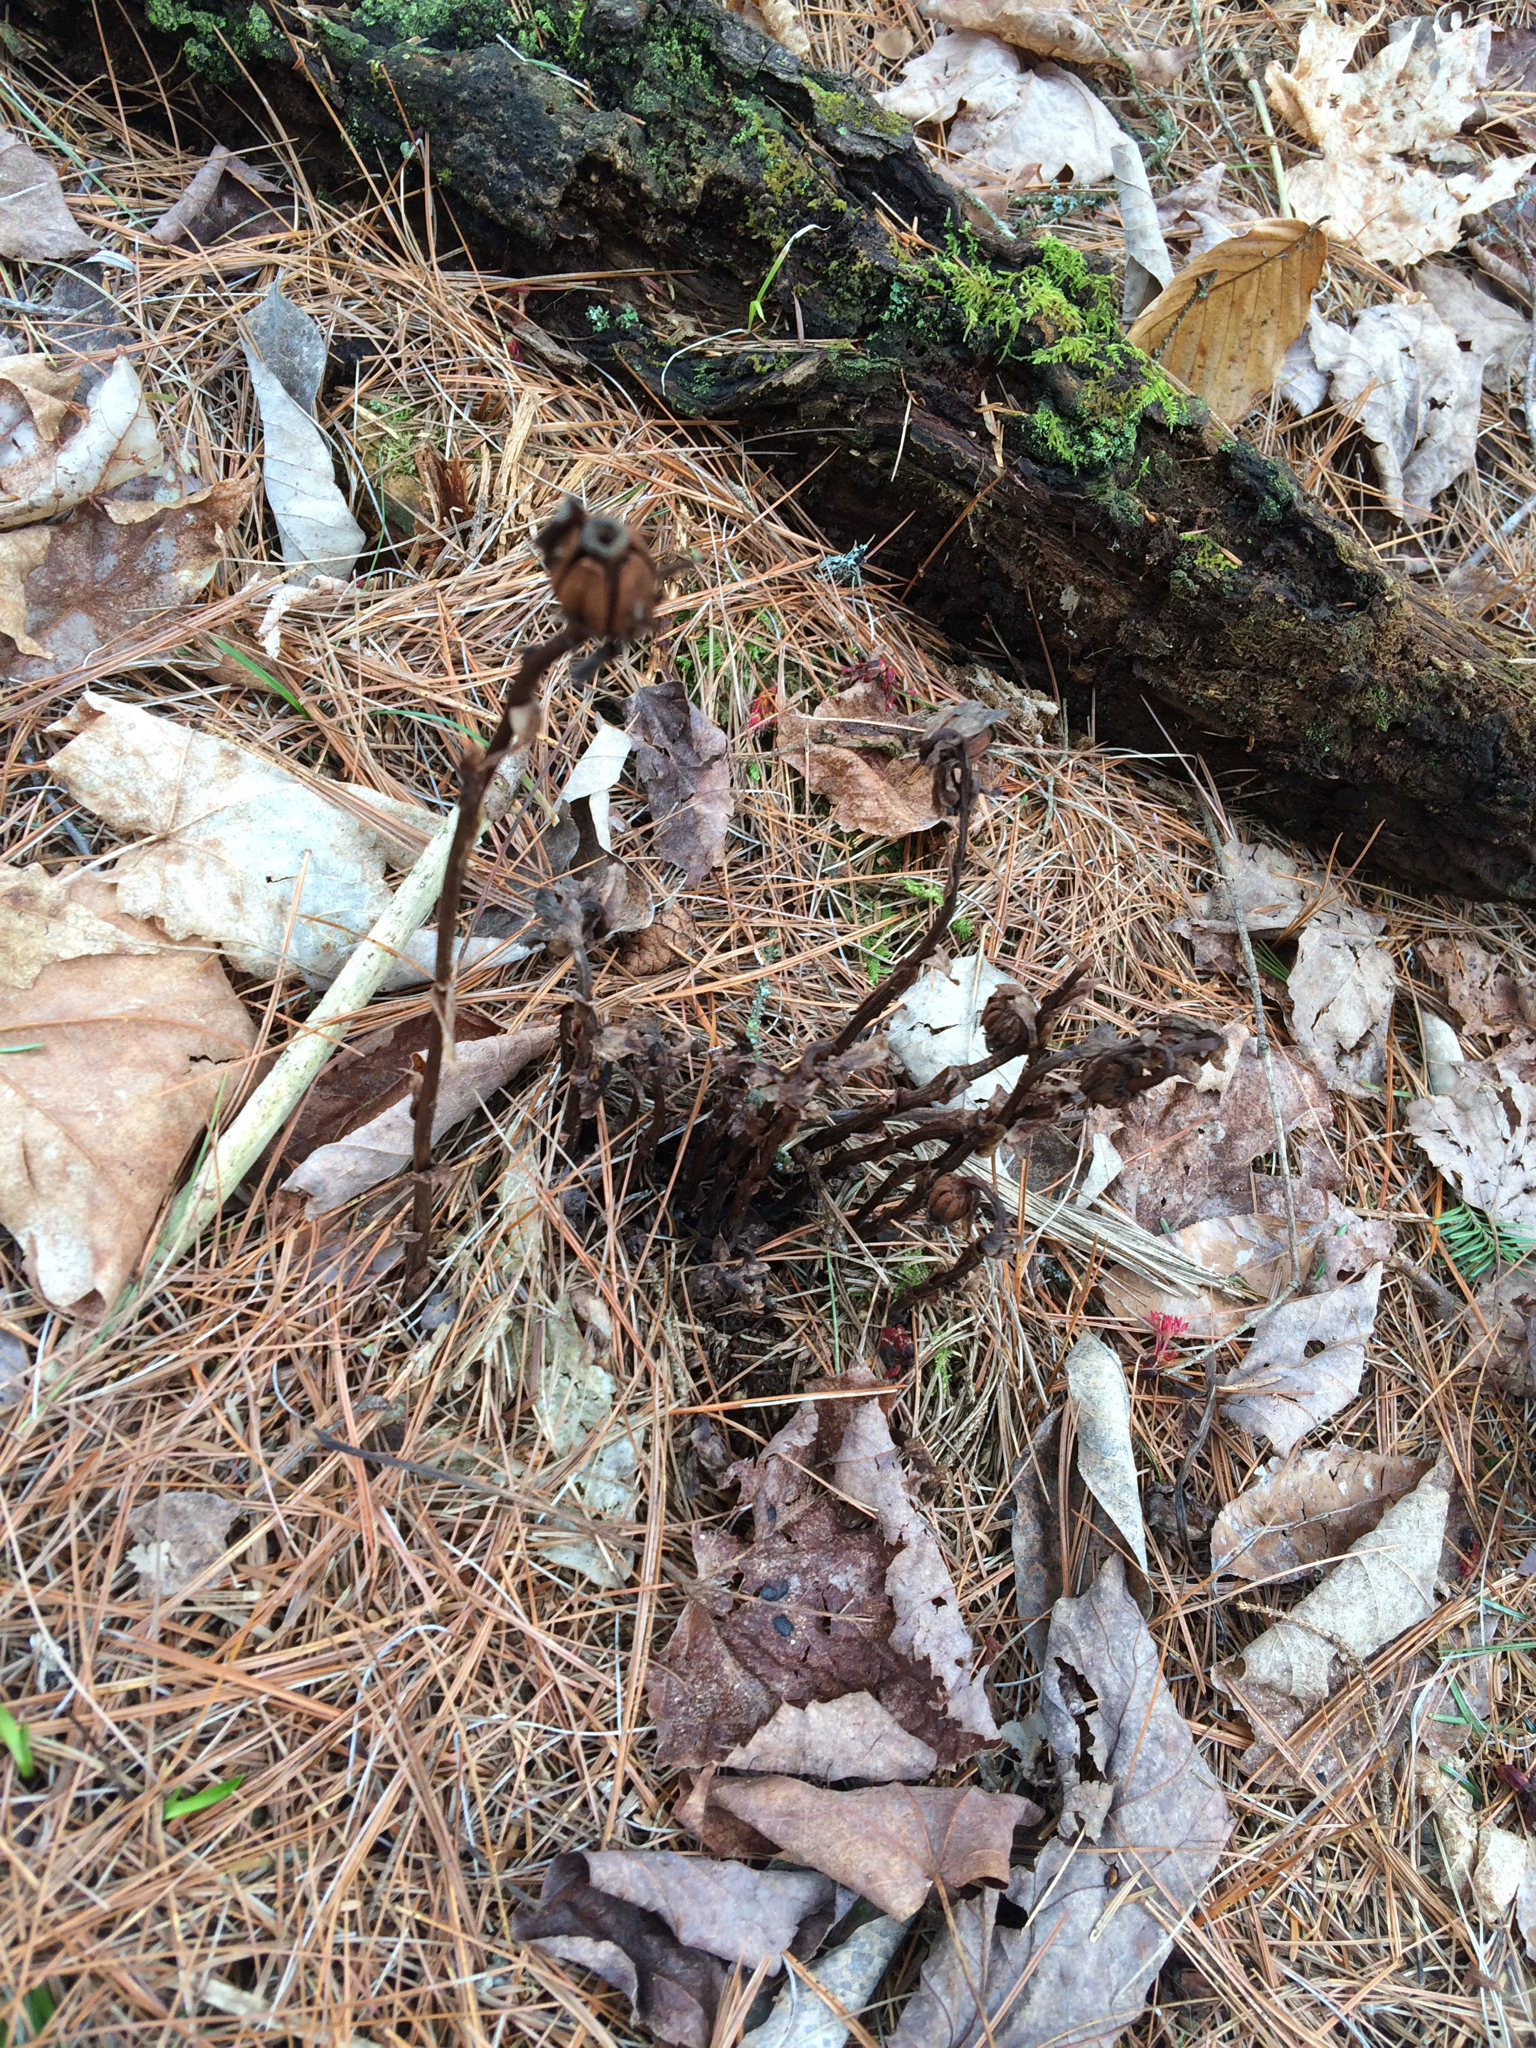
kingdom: Plantae
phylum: Tracheophyta
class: Magnoliopsida
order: Ericales
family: Ericaceae
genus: Monotropa
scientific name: Monotropa uniflora
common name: Convulsion root
